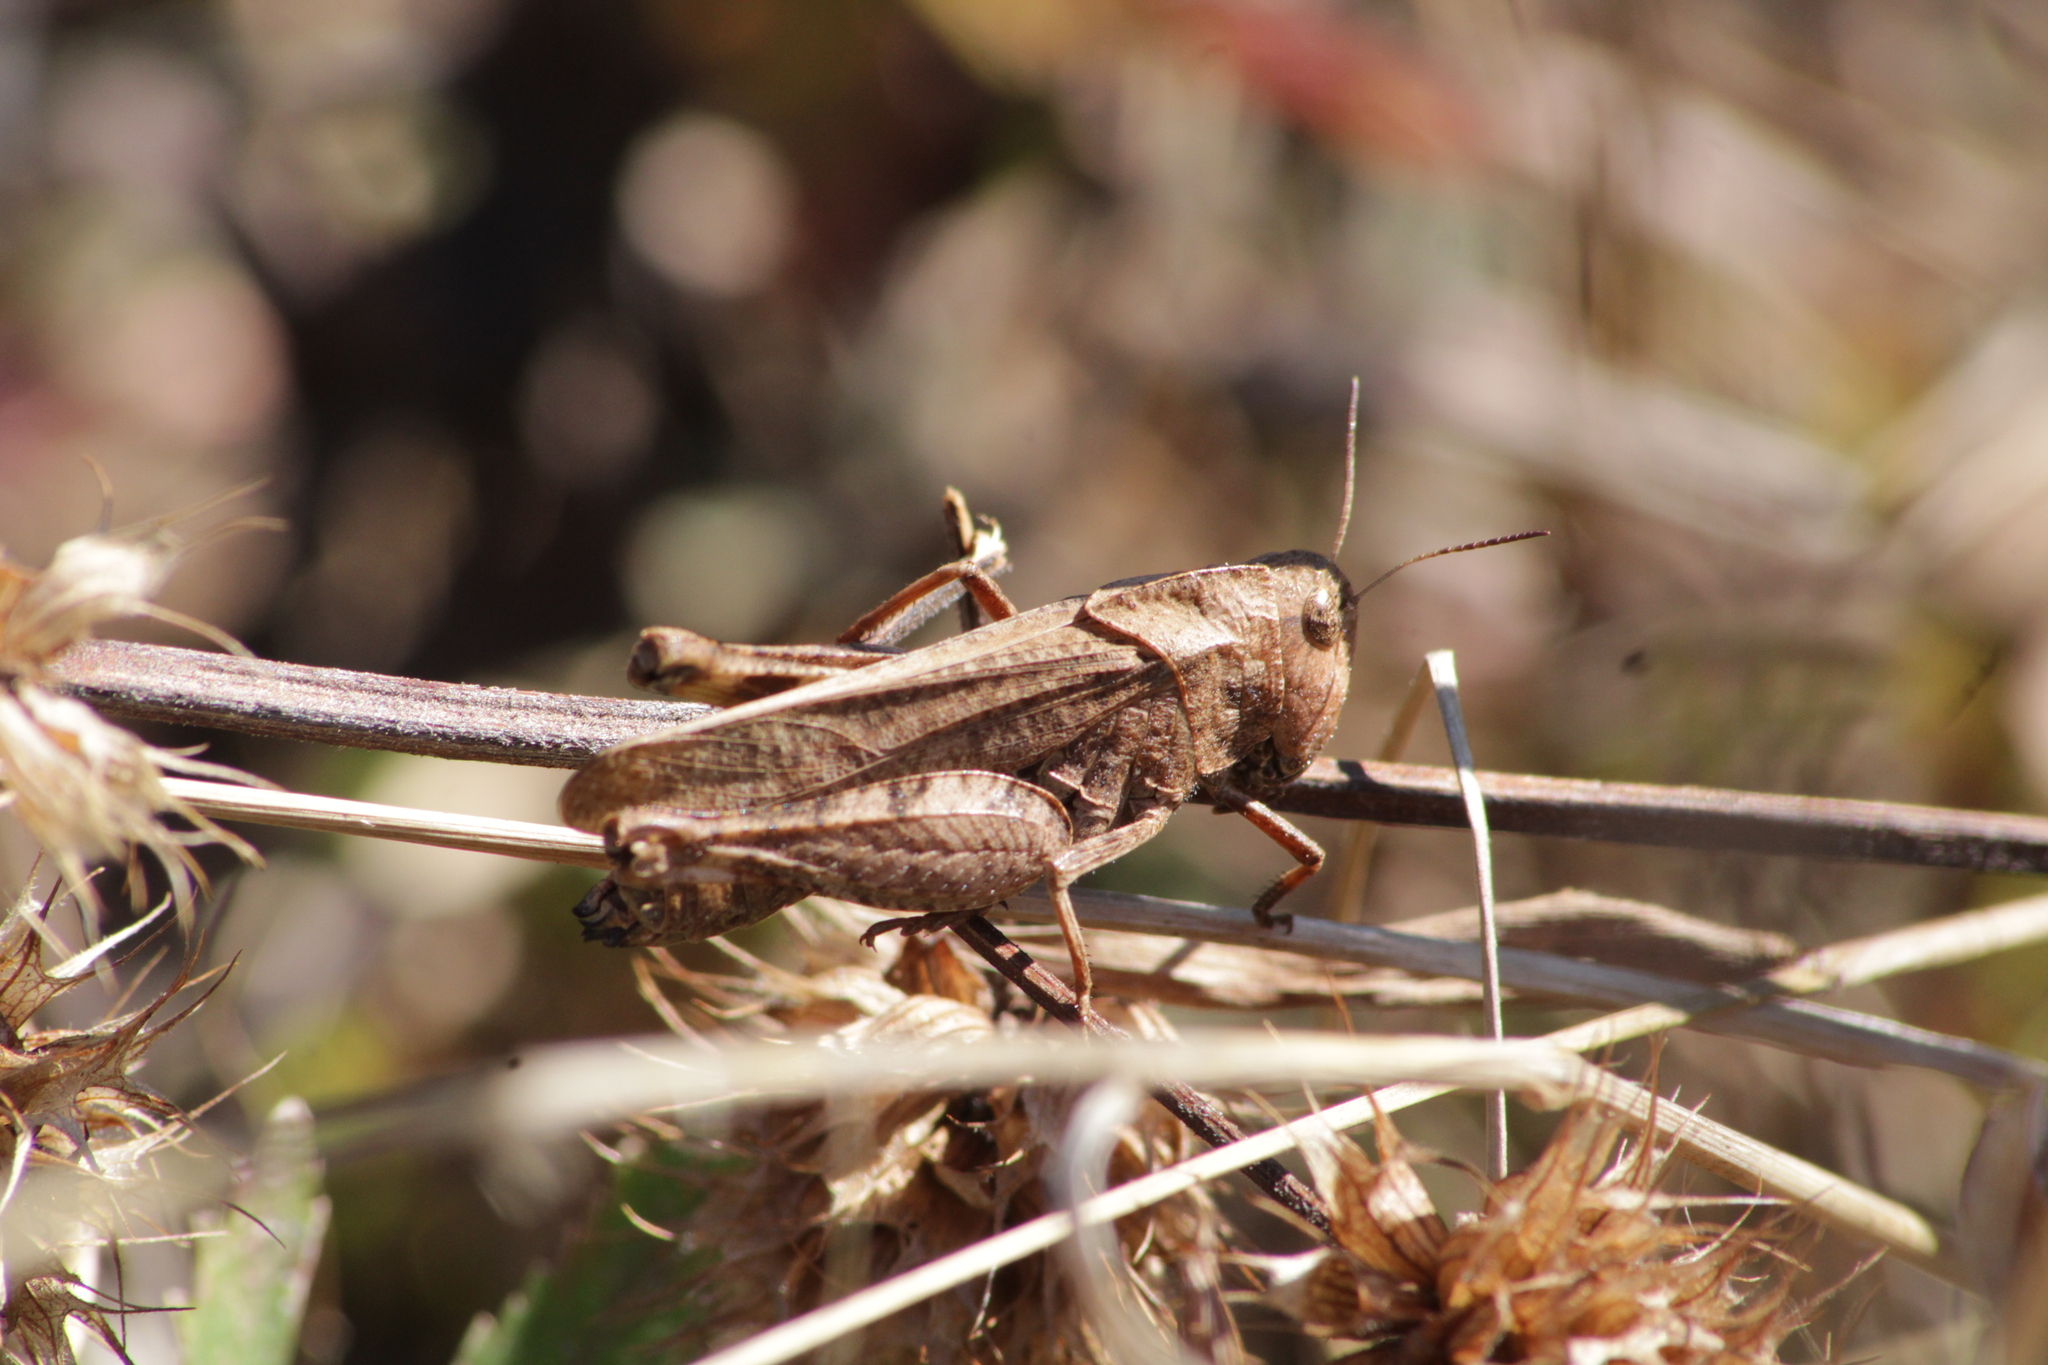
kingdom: Animalia
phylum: Arthropoda
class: Insecta
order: Orthoptera
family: Acrididae
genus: Arphia
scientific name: Arphia nietana
